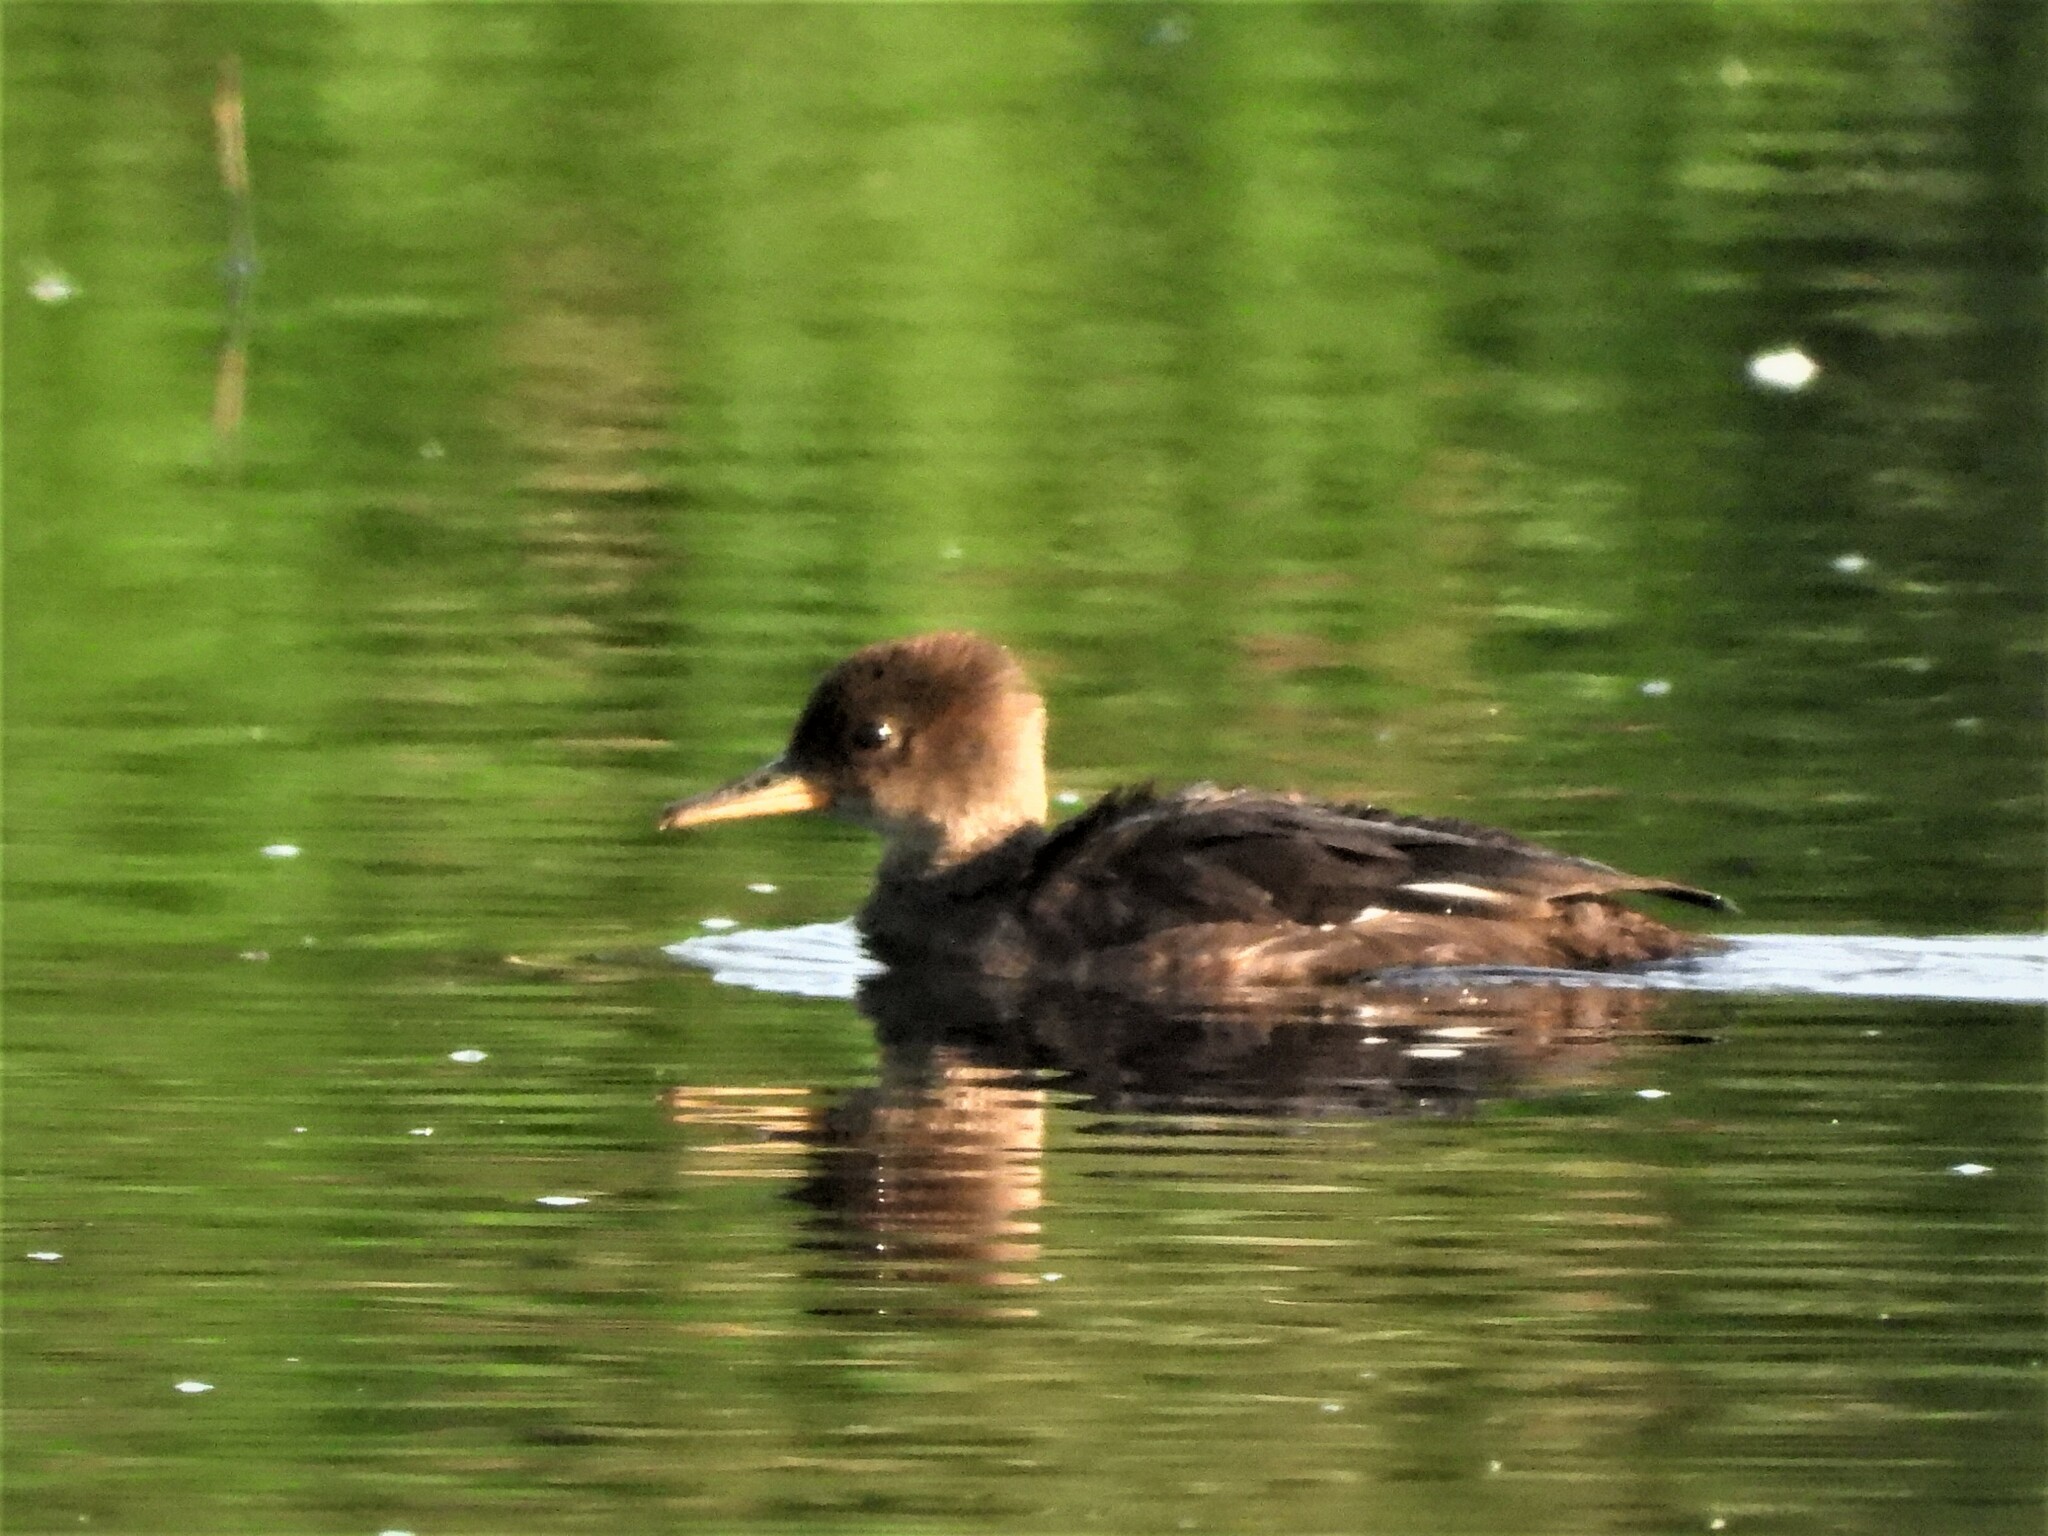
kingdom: Animalia
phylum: Chordata
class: Aves
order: Anseriformes
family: Anatidae
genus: Lophodytes
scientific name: Lophodytes cucullatus
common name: Hooded merganser
